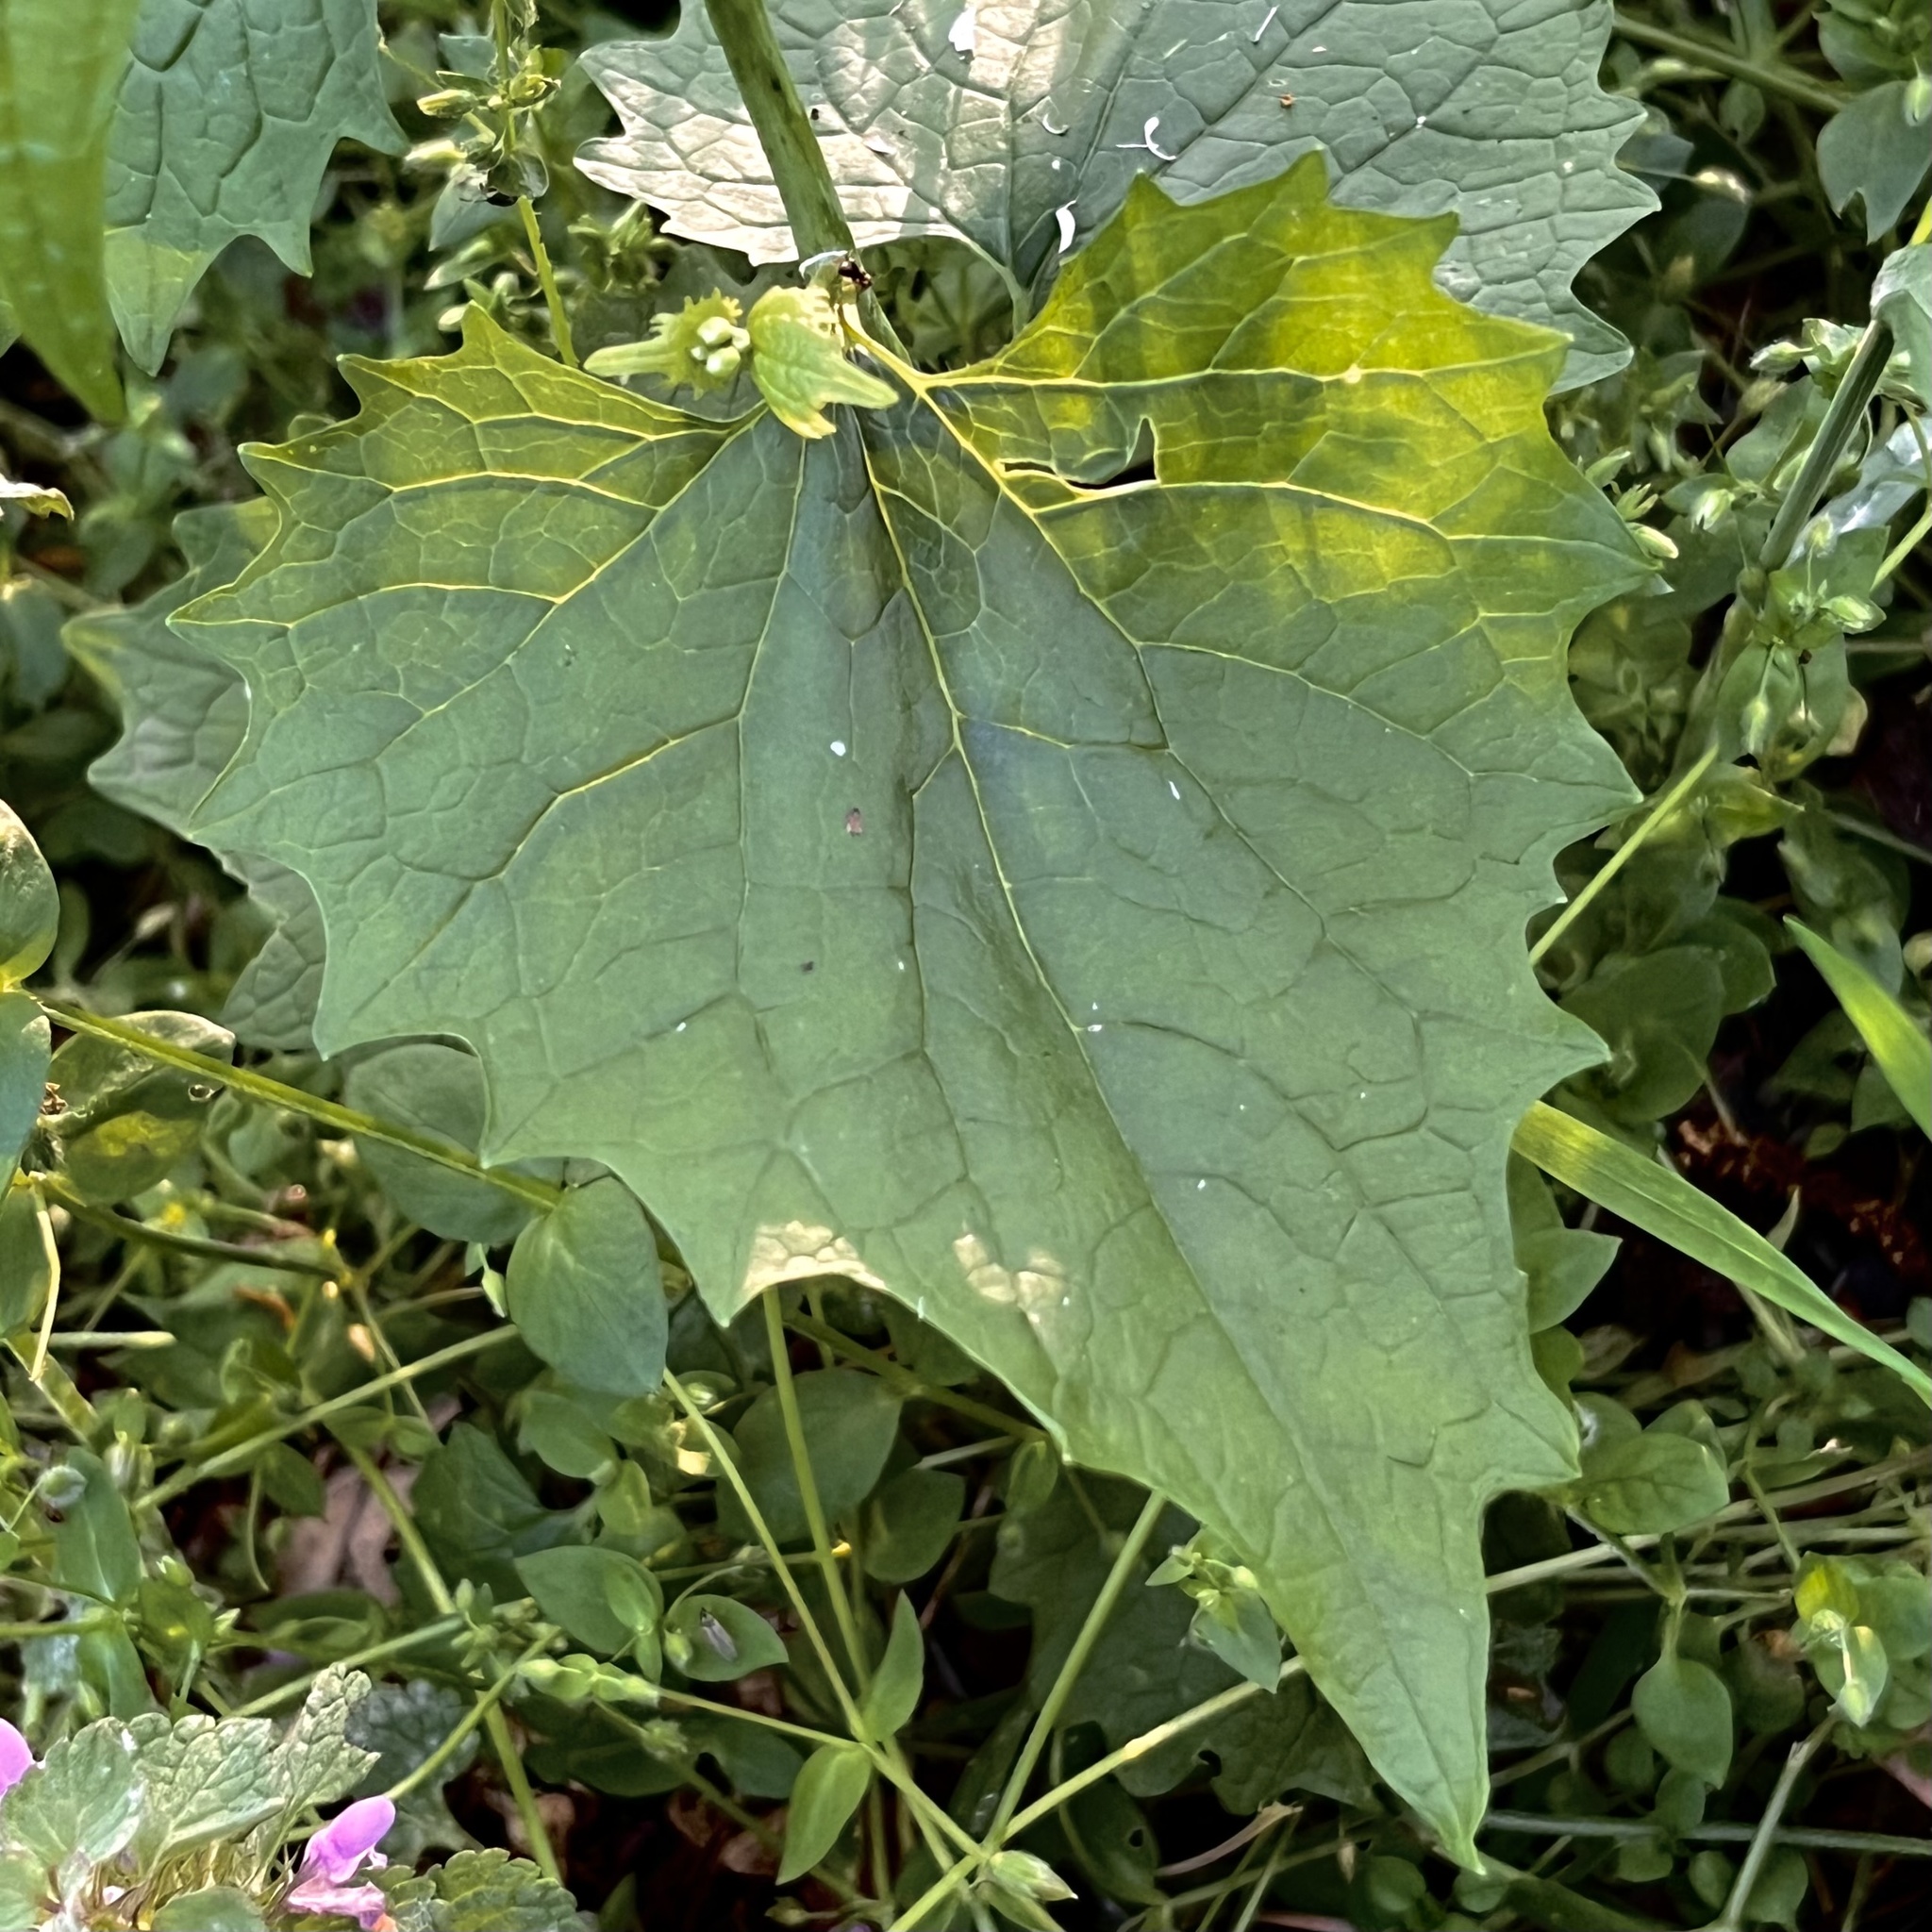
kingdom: Plantae
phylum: Tracheophyta
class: Magnoliopsida
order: Brassicales
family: Brassicaceae
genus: Alliaria
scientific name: Alliaria petiolata
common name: Garlic mustard
